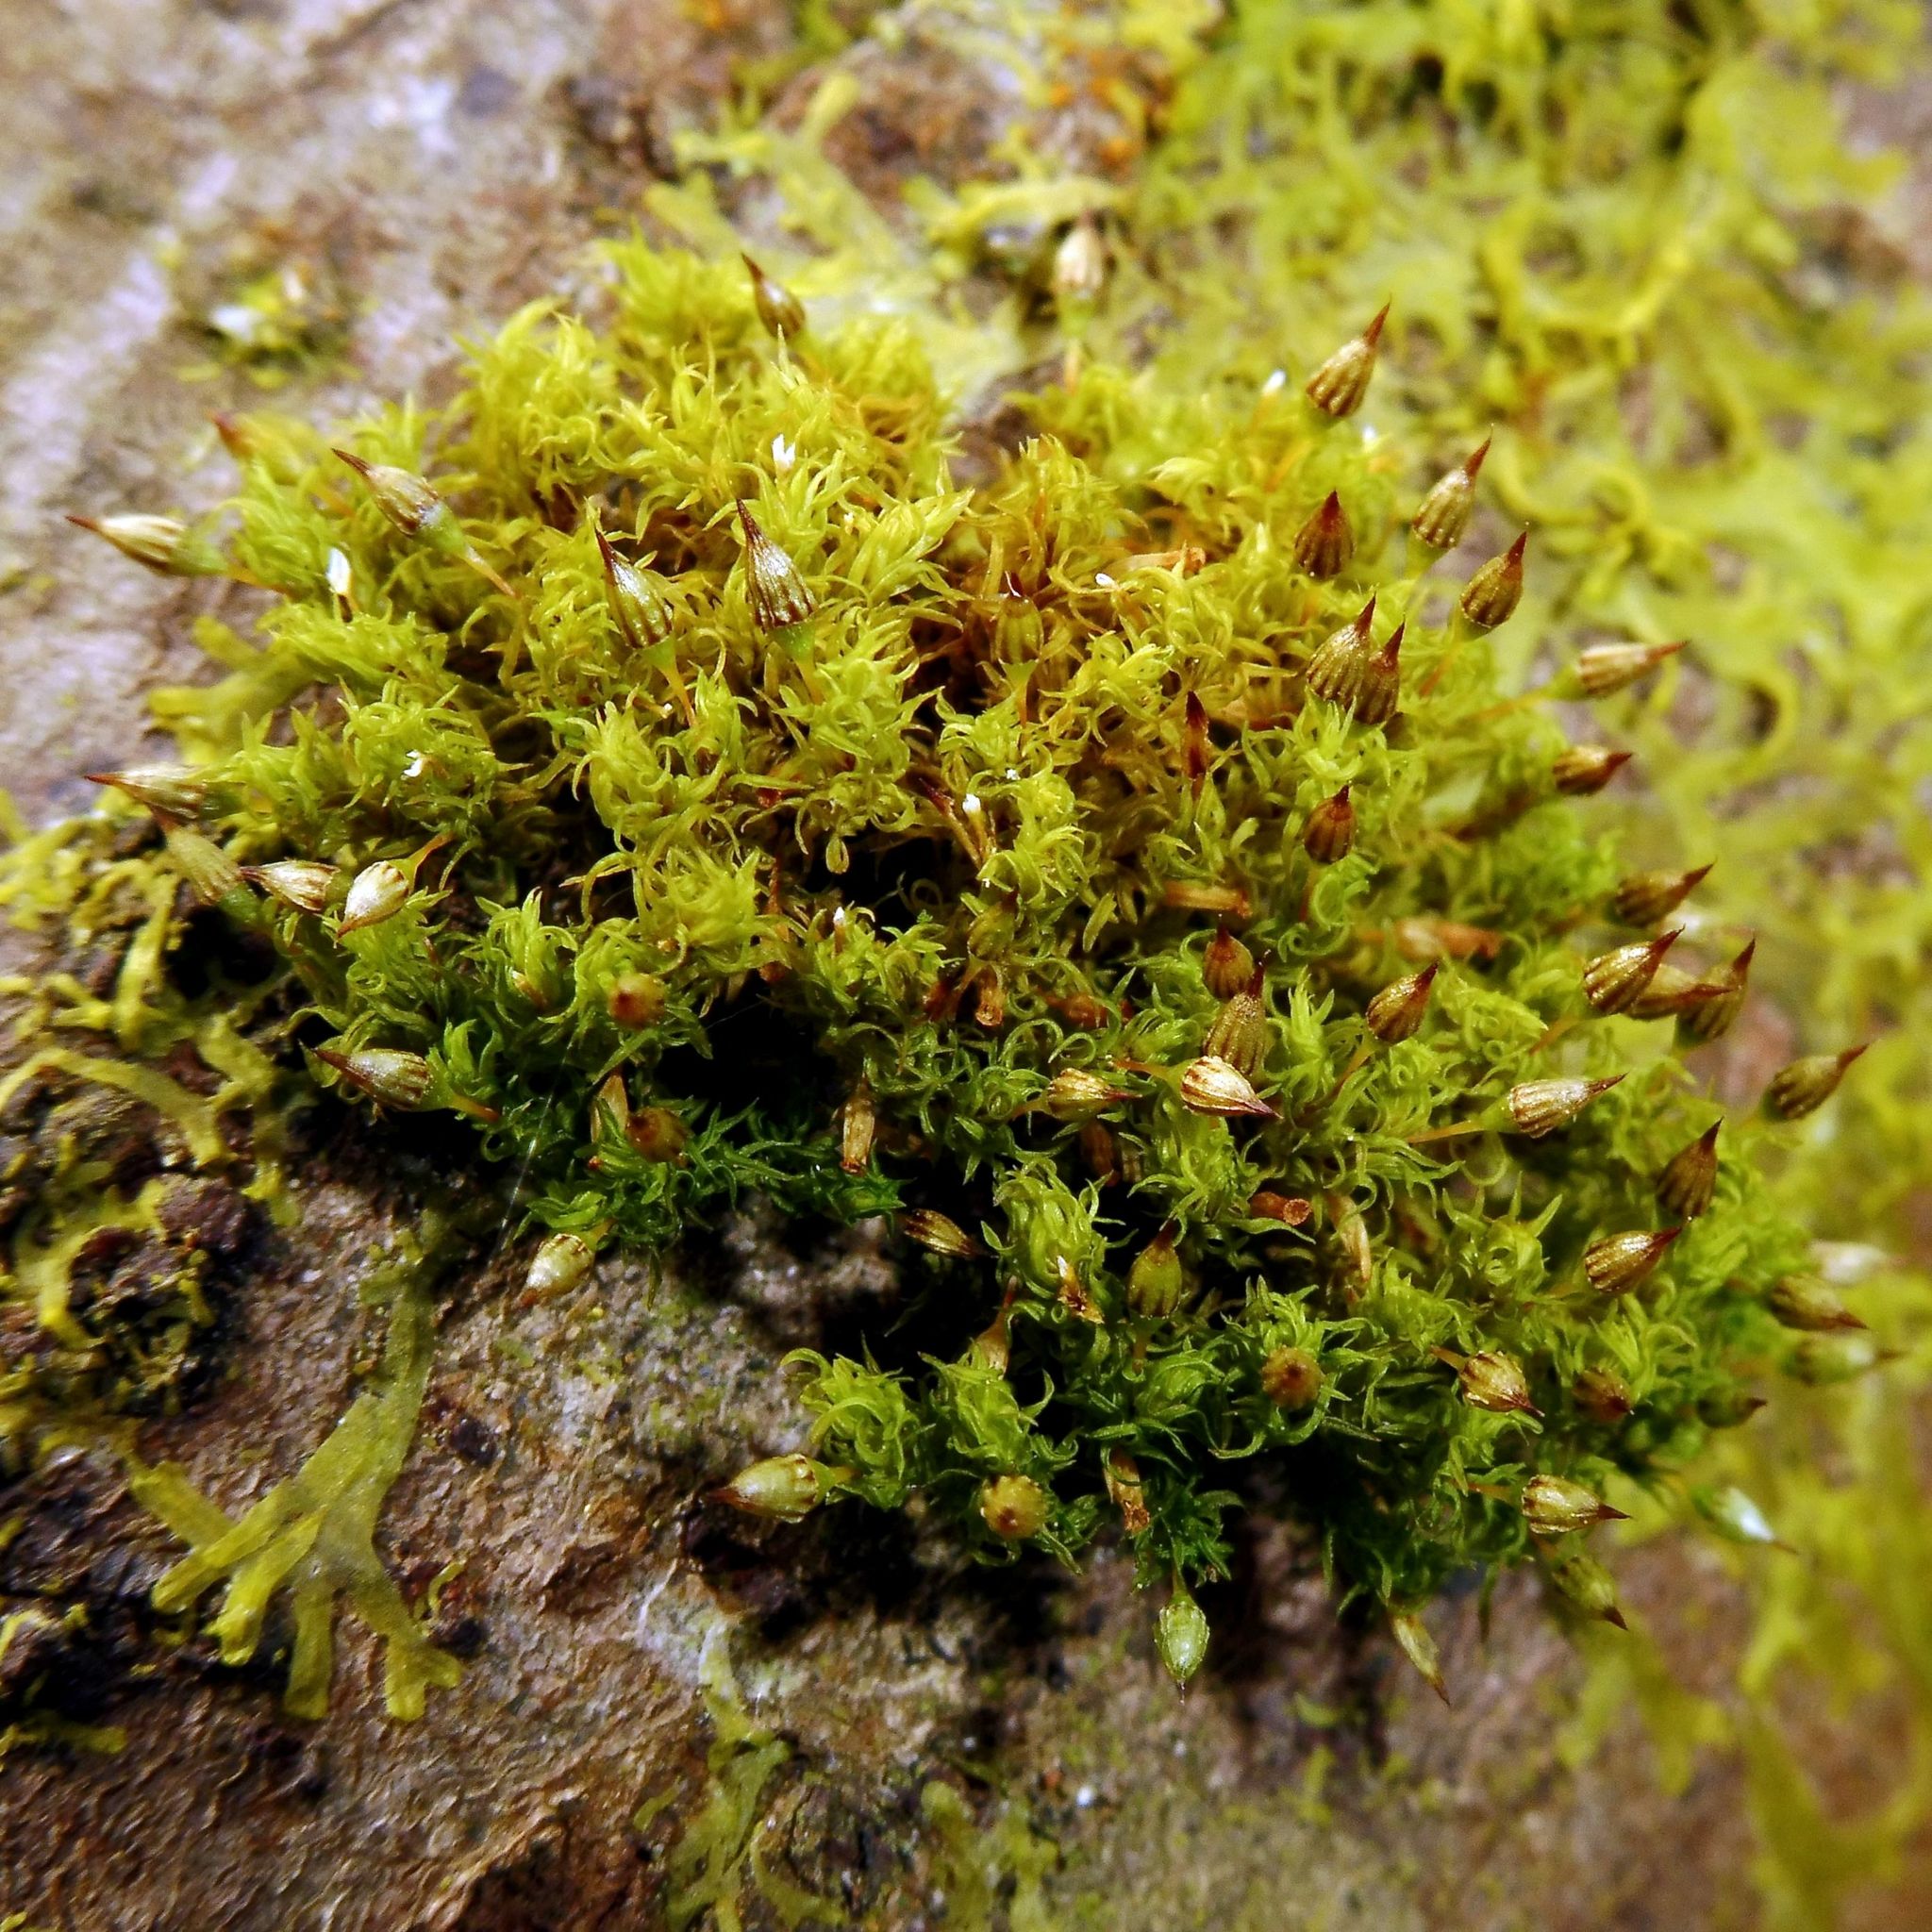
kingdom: Plantae
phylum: Bryophyta
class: Bryopsida
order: Orthotrichales
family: Orthotrichaceae
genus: Orthotrichum
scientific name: Orthotrichum pulchellum
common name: Elegant bristle-moss
